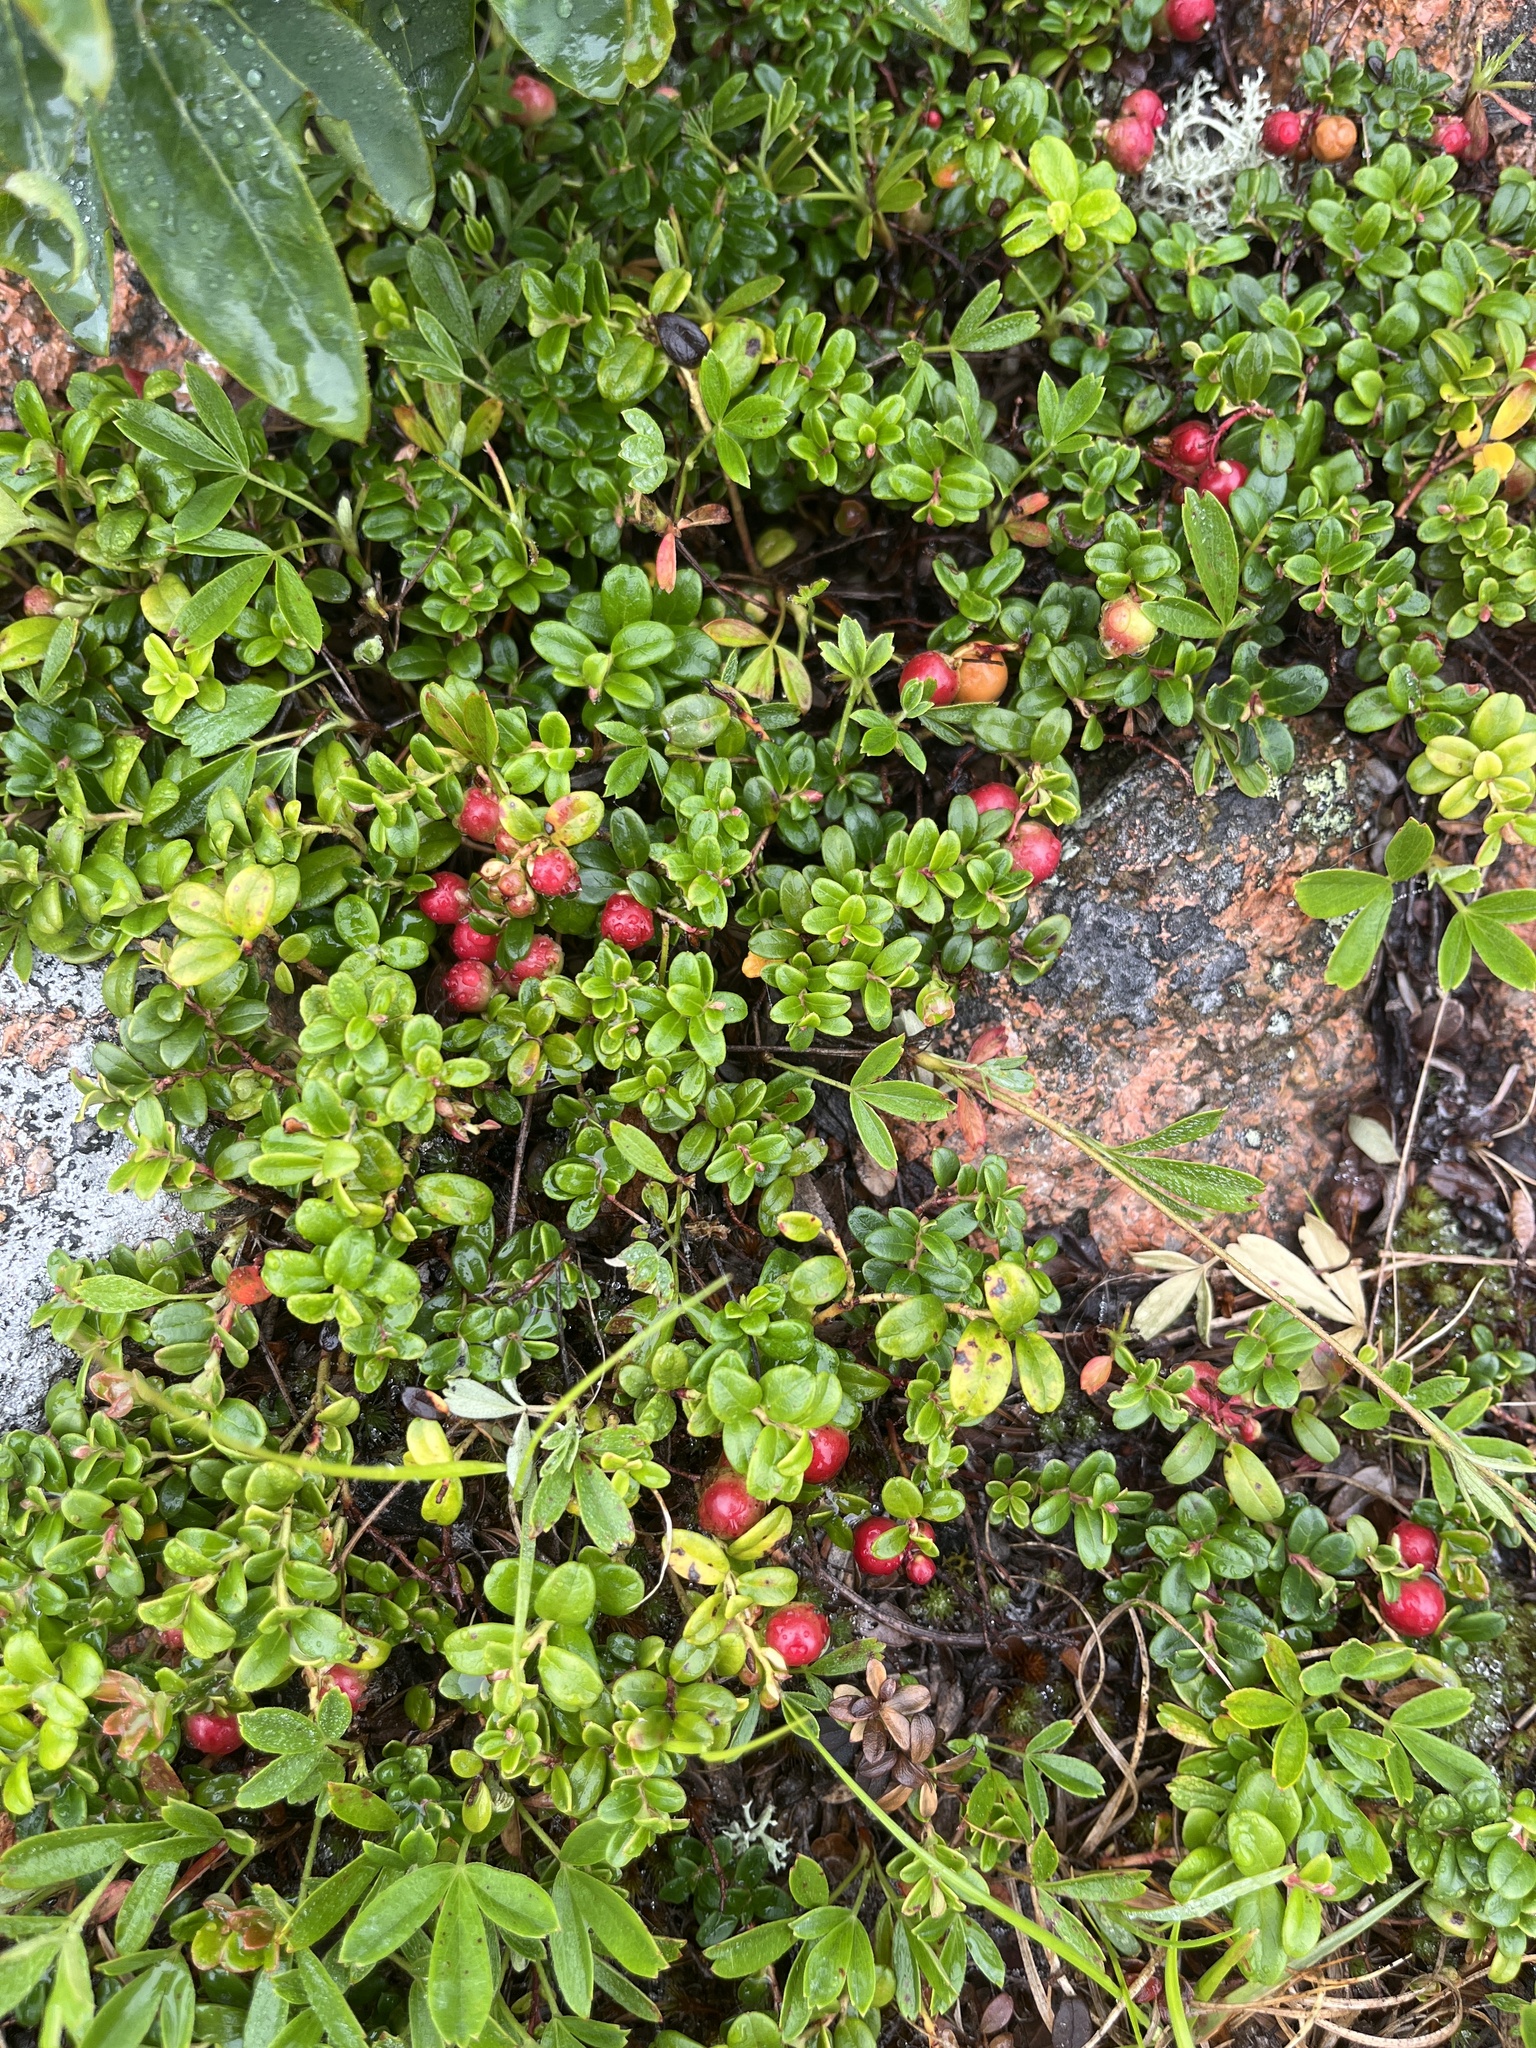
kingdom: Plantae
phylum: Tracheophyta
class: Magnoliopsida
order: Ericales
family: Ericaceae
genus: Vaccinium
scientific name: Vaccinium vitis-idaea
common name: Cowberry
